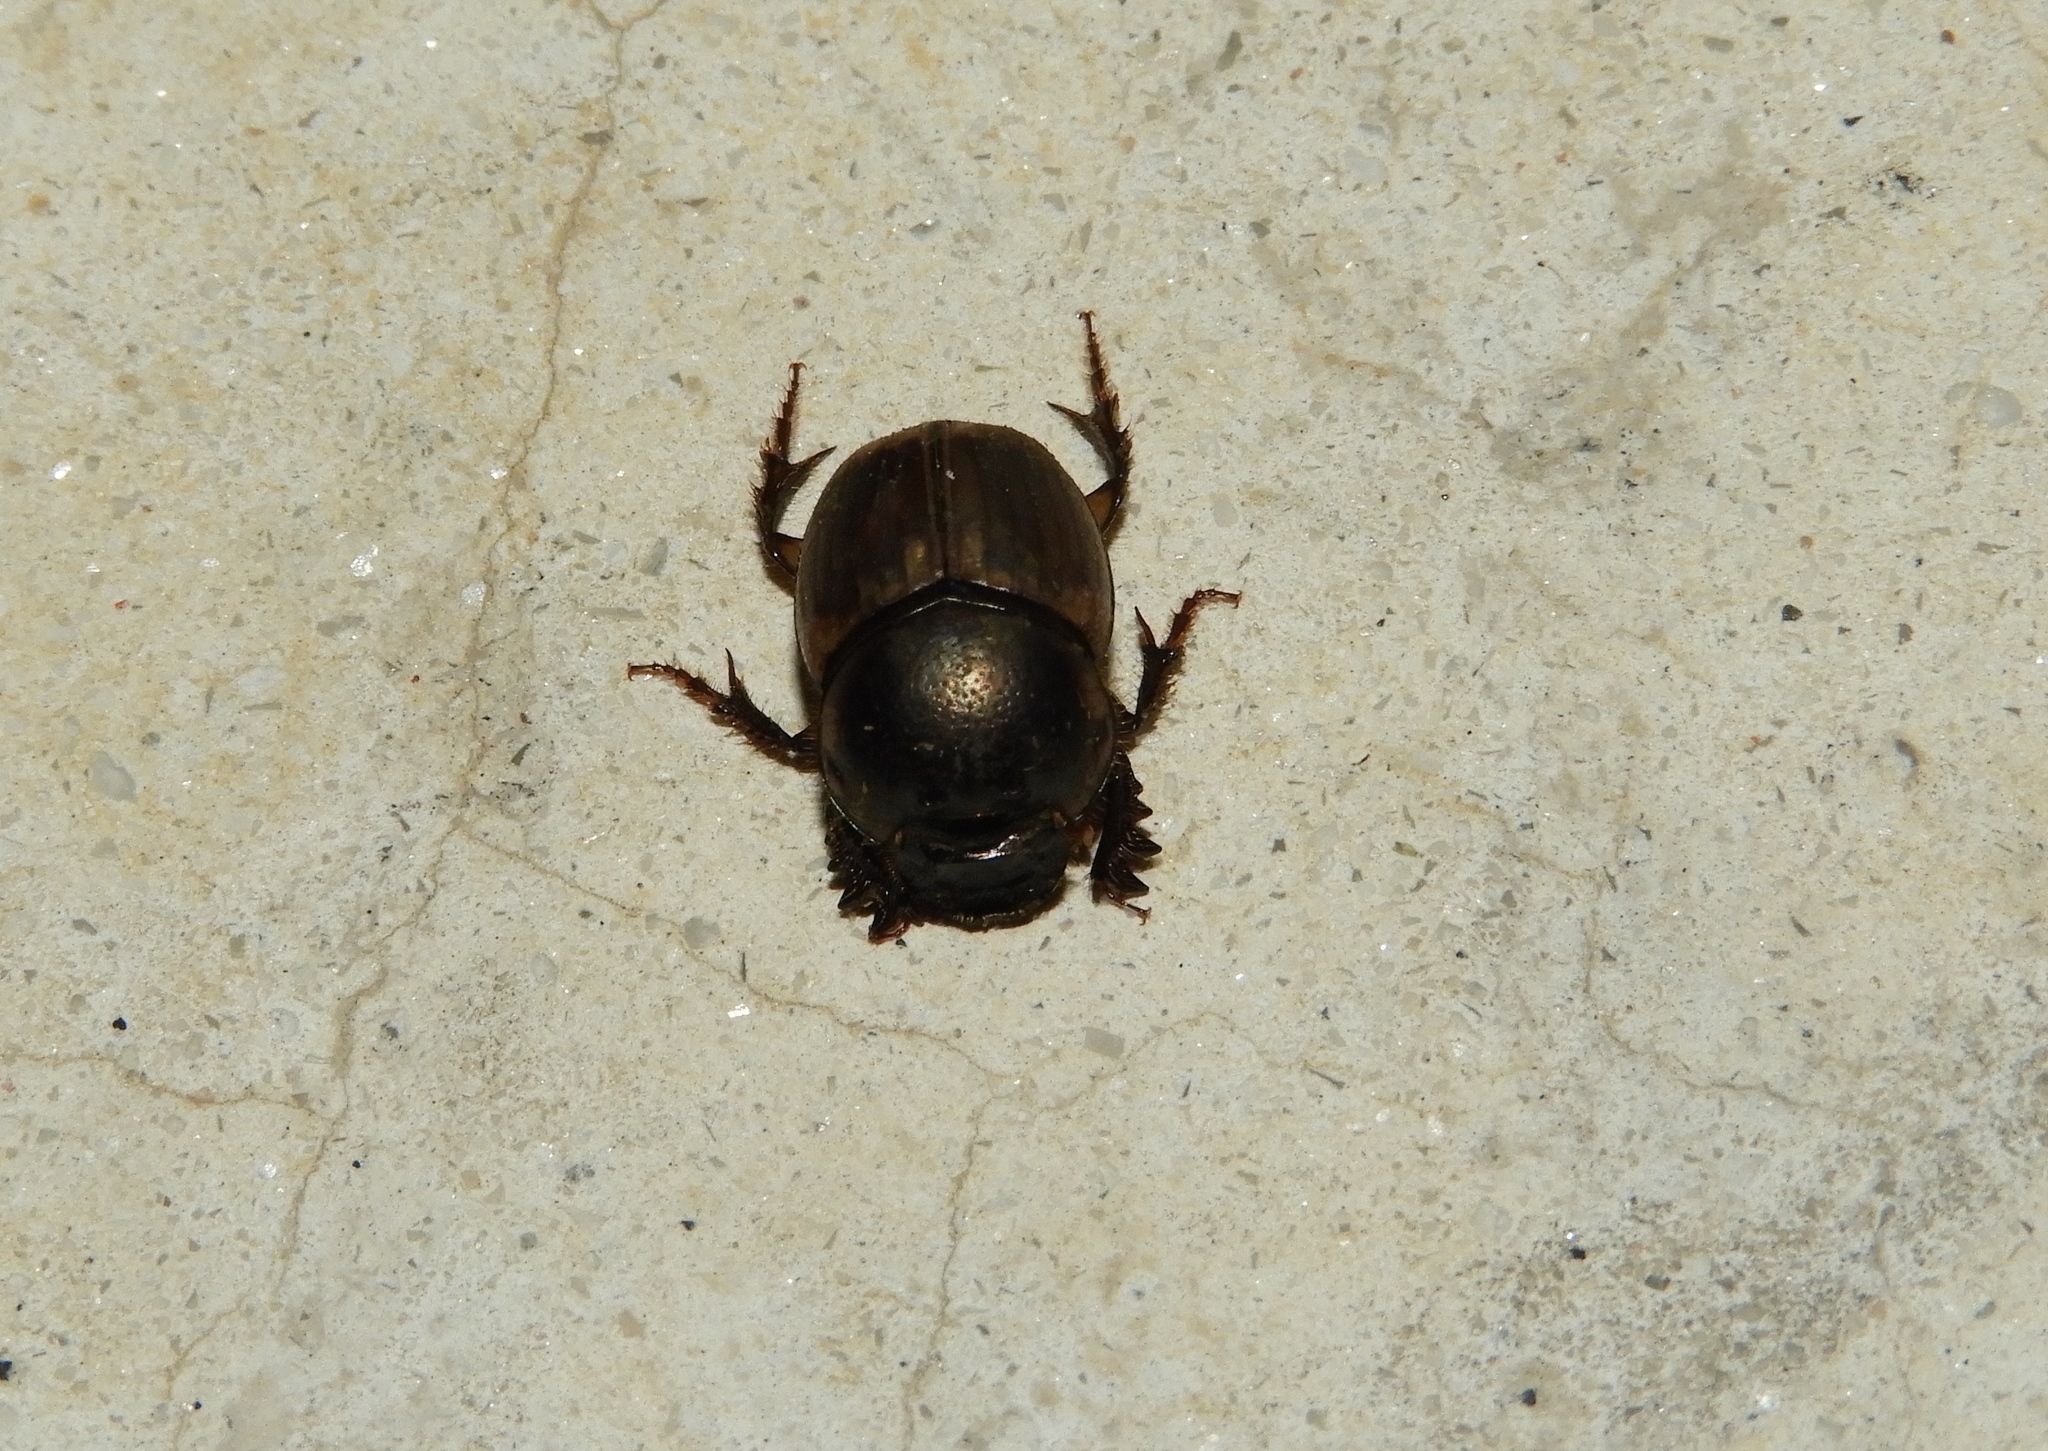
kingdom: Animalia
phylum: Arthropoda
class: Insecta
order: Coleoptera
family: Scarabaeidae
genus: Digitonthophagus
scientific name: Digitonthophagus gazella
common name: Brown dung beetle
